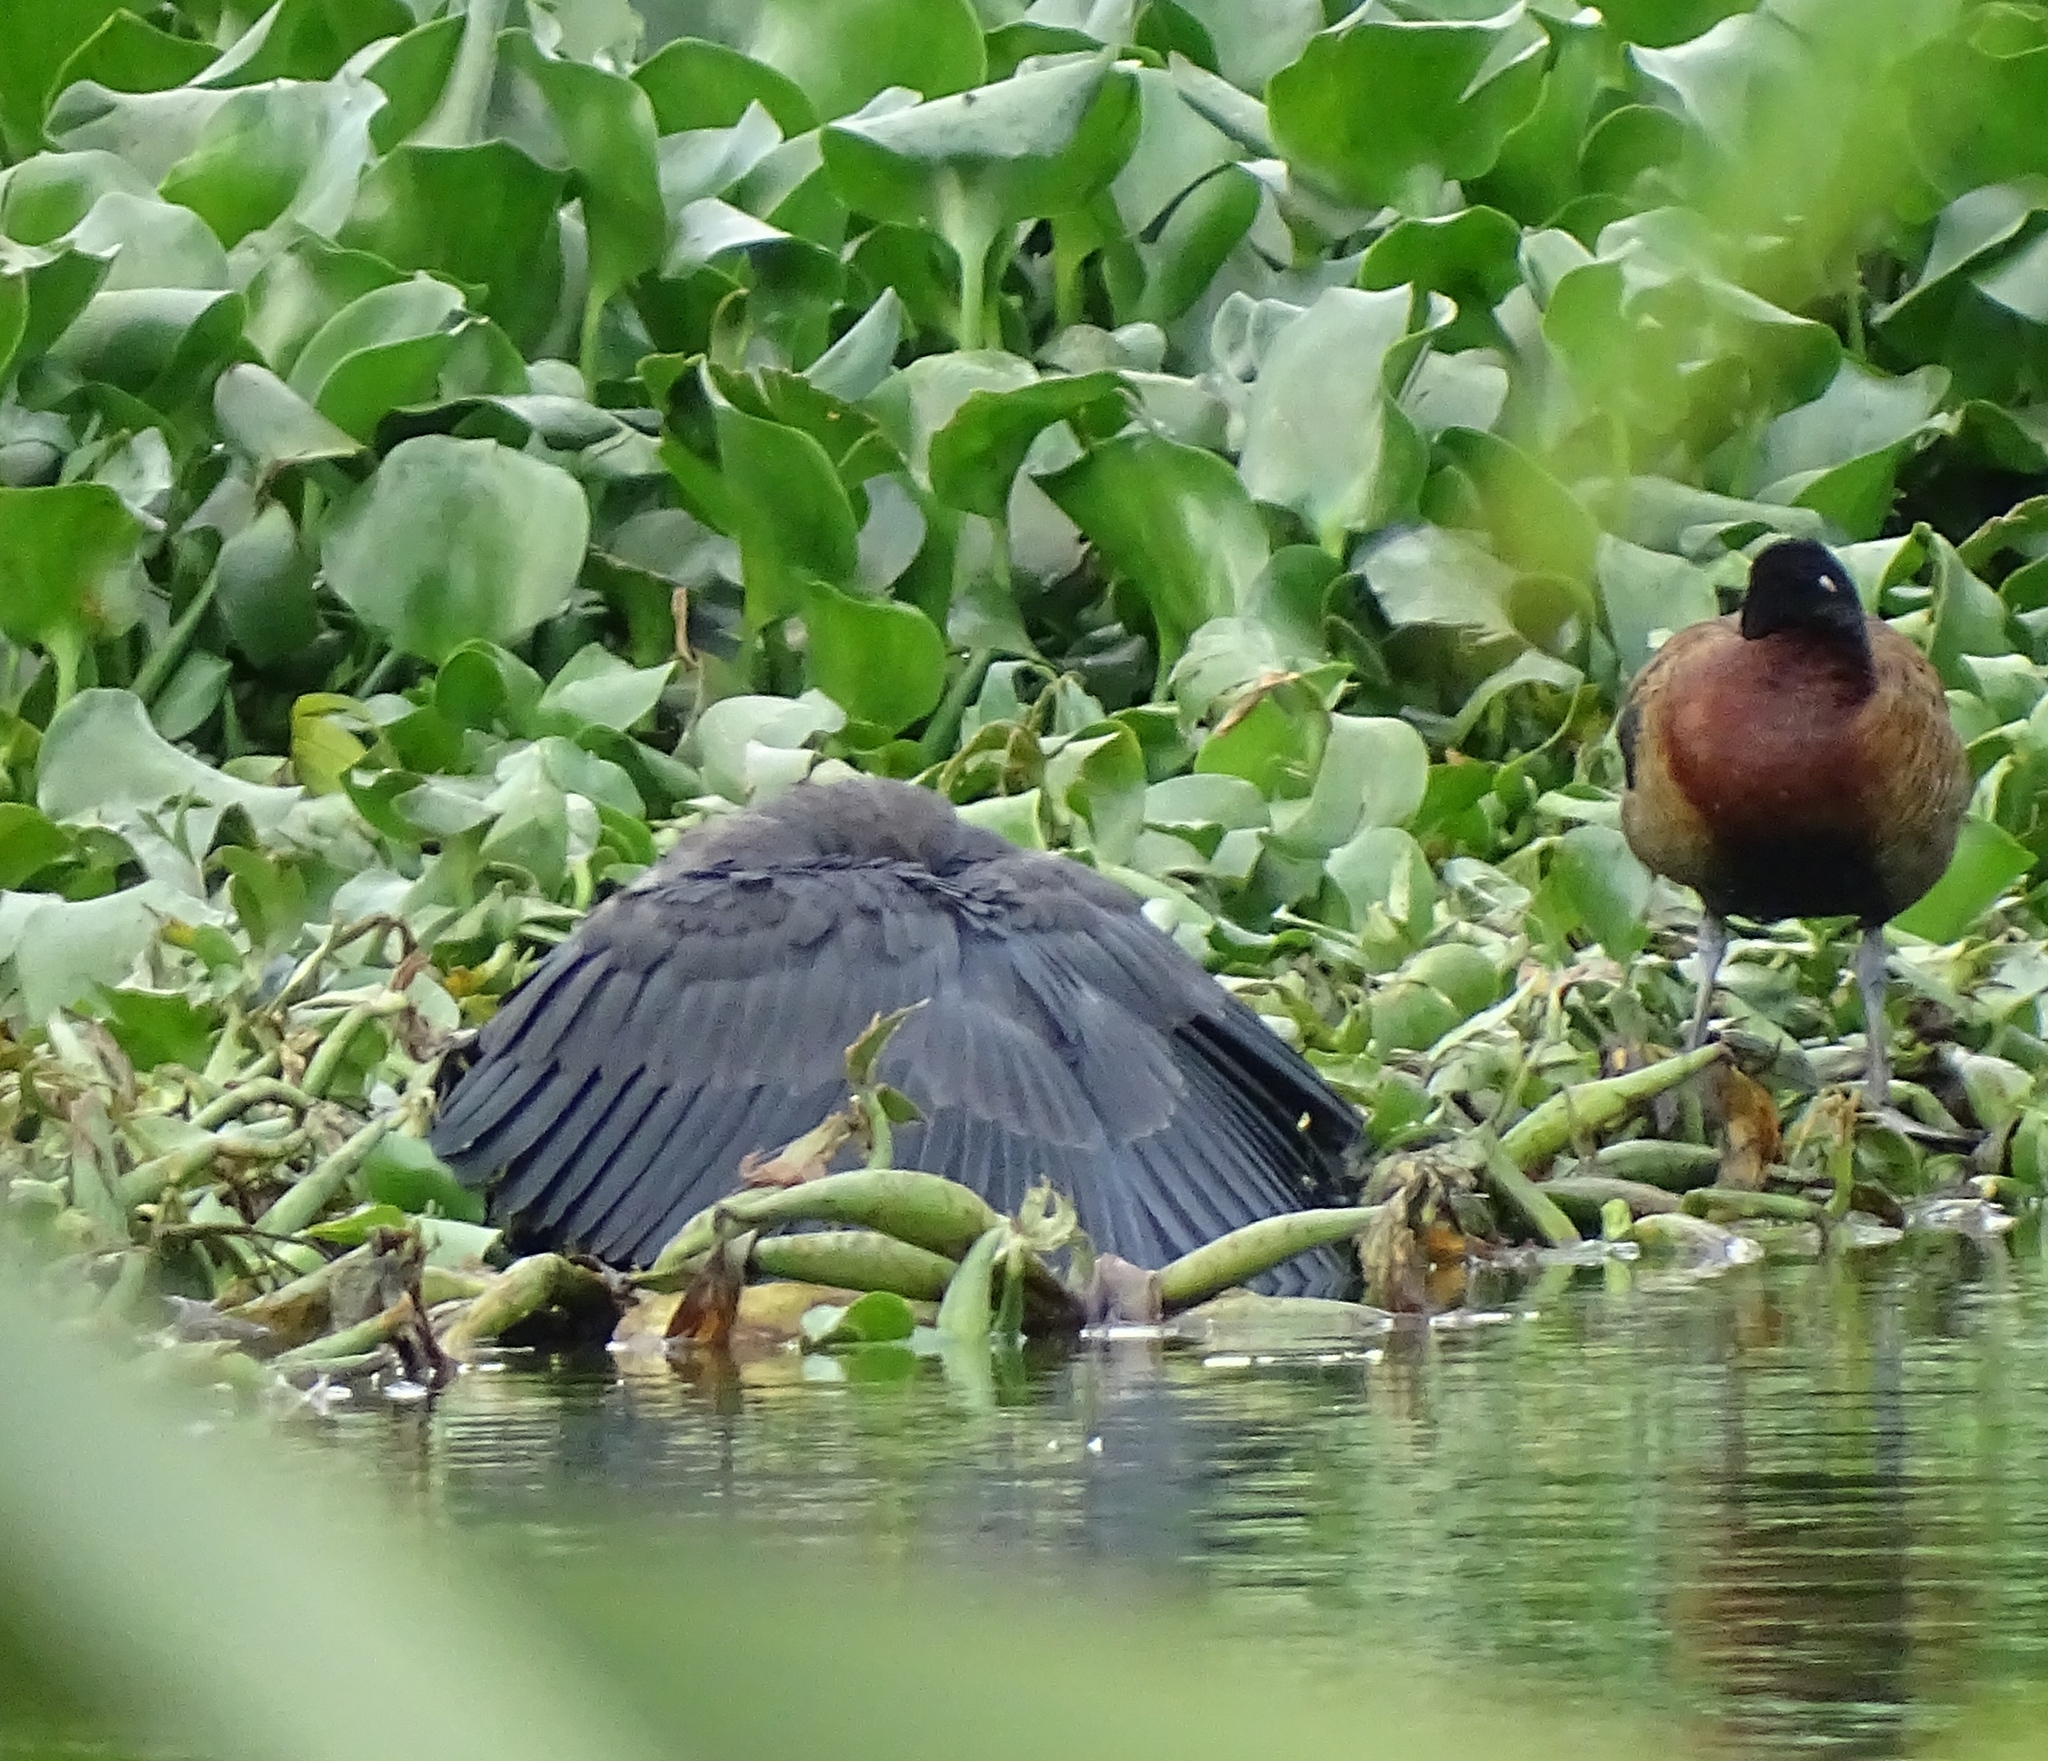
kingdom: Animalia
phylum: Chordata
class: Aves
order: Pelecaniformes
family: Ardeidae
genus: Egretta
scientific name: Egretta ardesiaca
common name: Black heron
